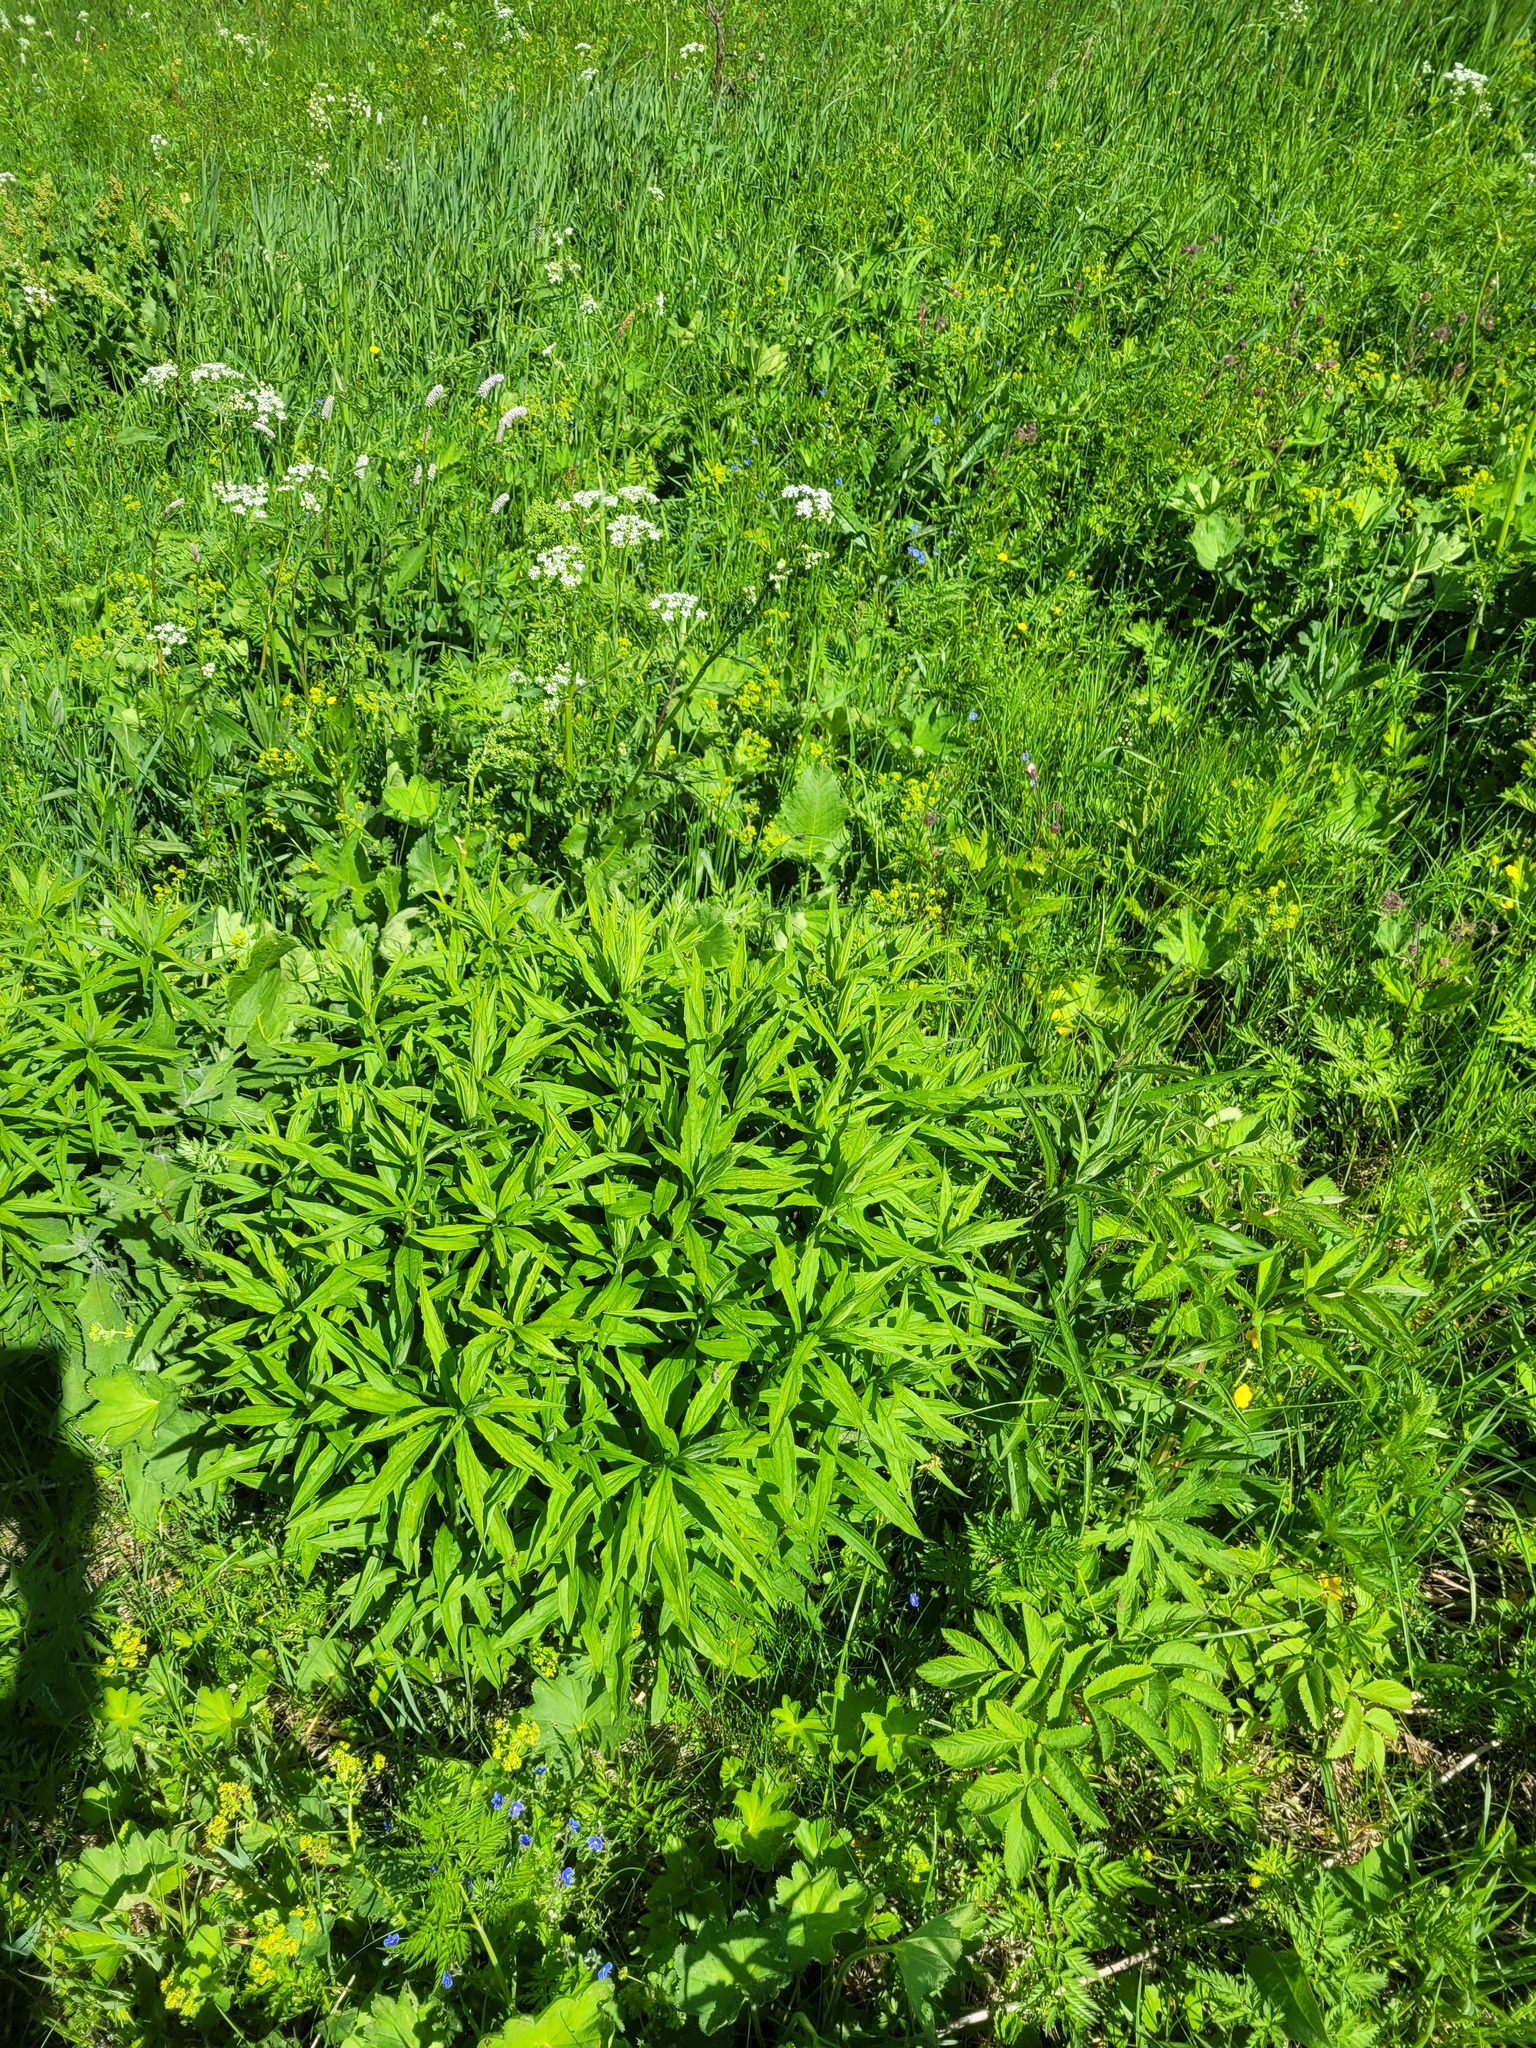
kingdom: Plantae
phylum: Tracheophyta
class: Magnoliopsida
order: Asterales
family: Asteraceae
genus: Solidago
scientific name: Solidago canadensis
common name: Canada goldenrod
